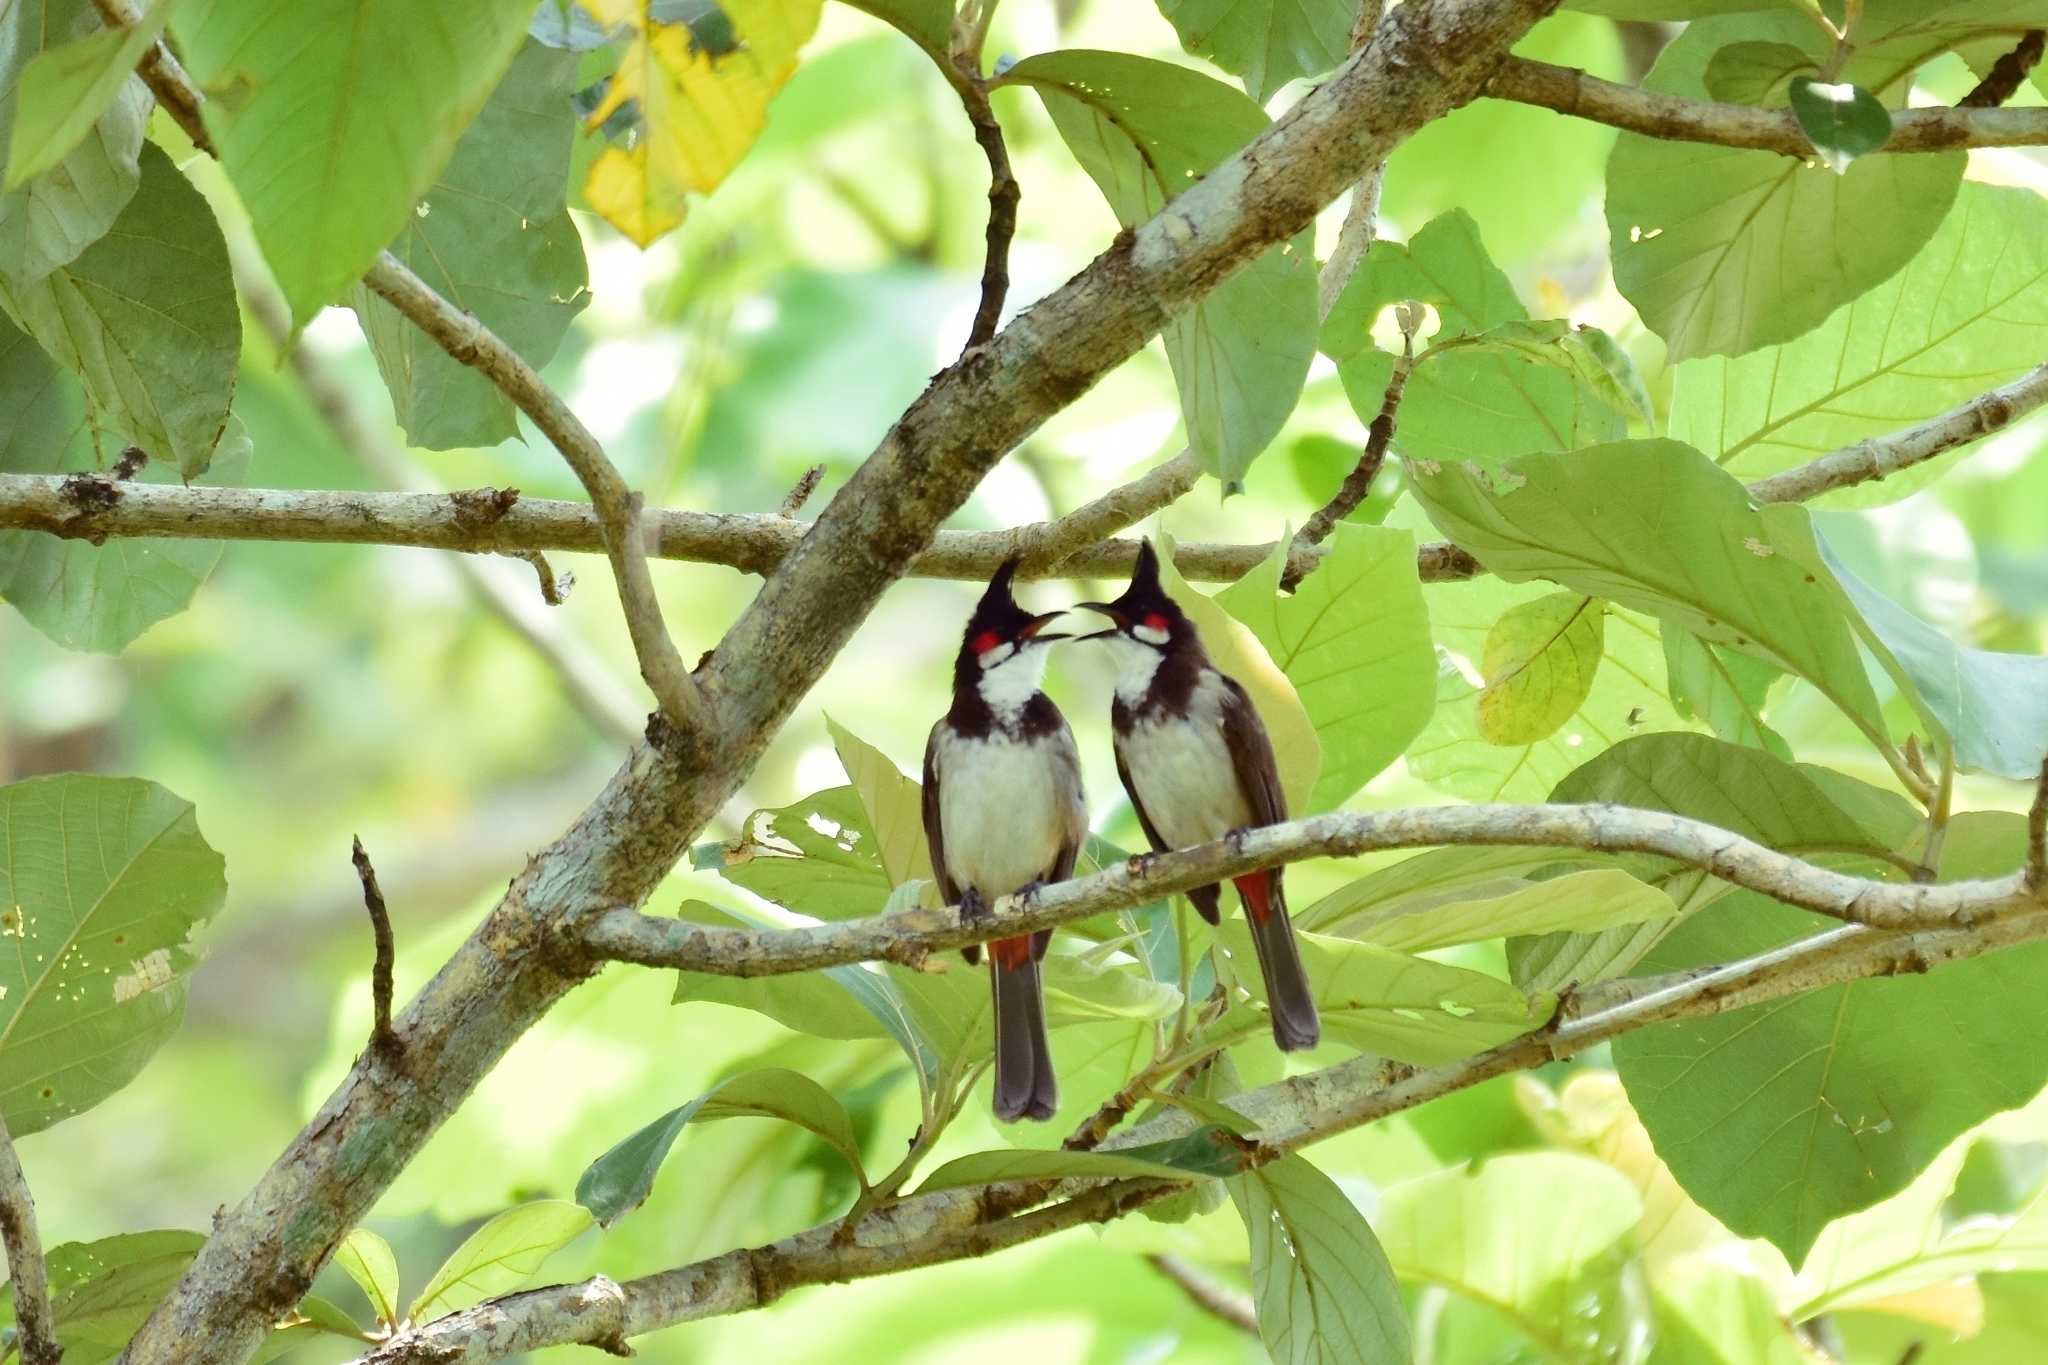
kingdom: Animalia
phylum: Chordata
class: Aves
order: Passeriformes
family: Pycnonotidae
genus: Pycnonotus
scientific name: Pycnonotus jocosus
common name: Red-whiskered bulbul
